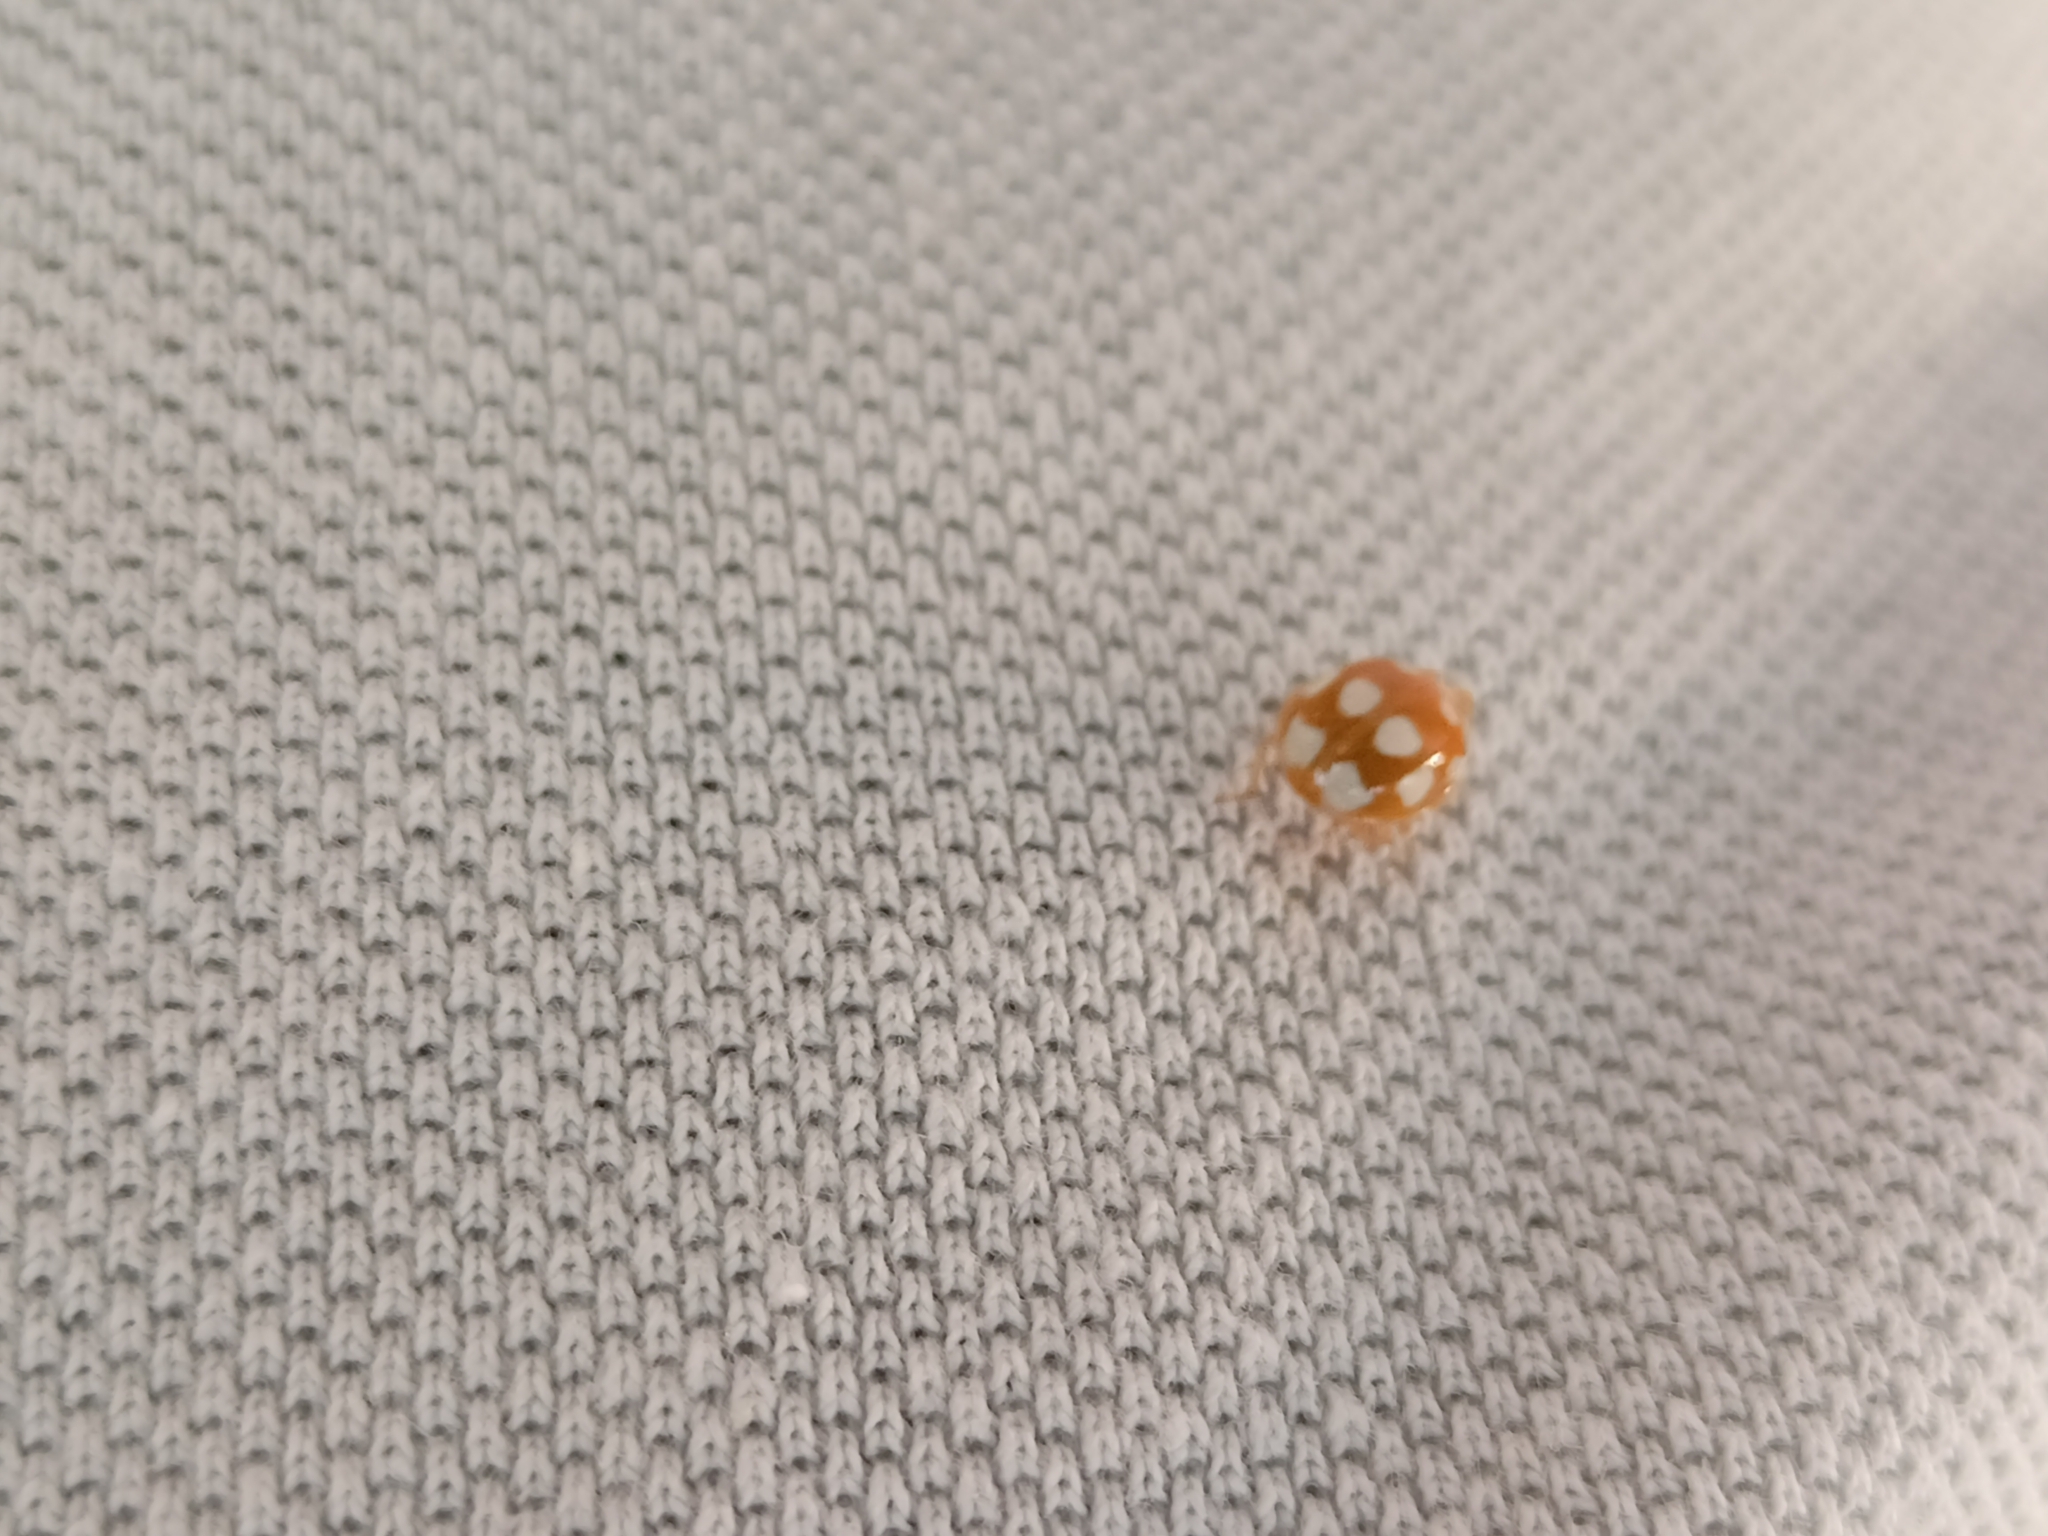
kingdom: Animalia
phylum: Arthropoda
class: Insecta
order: Coleoptera
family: Coccinellidae
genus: Calvia
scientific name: Calvia decemguttata
